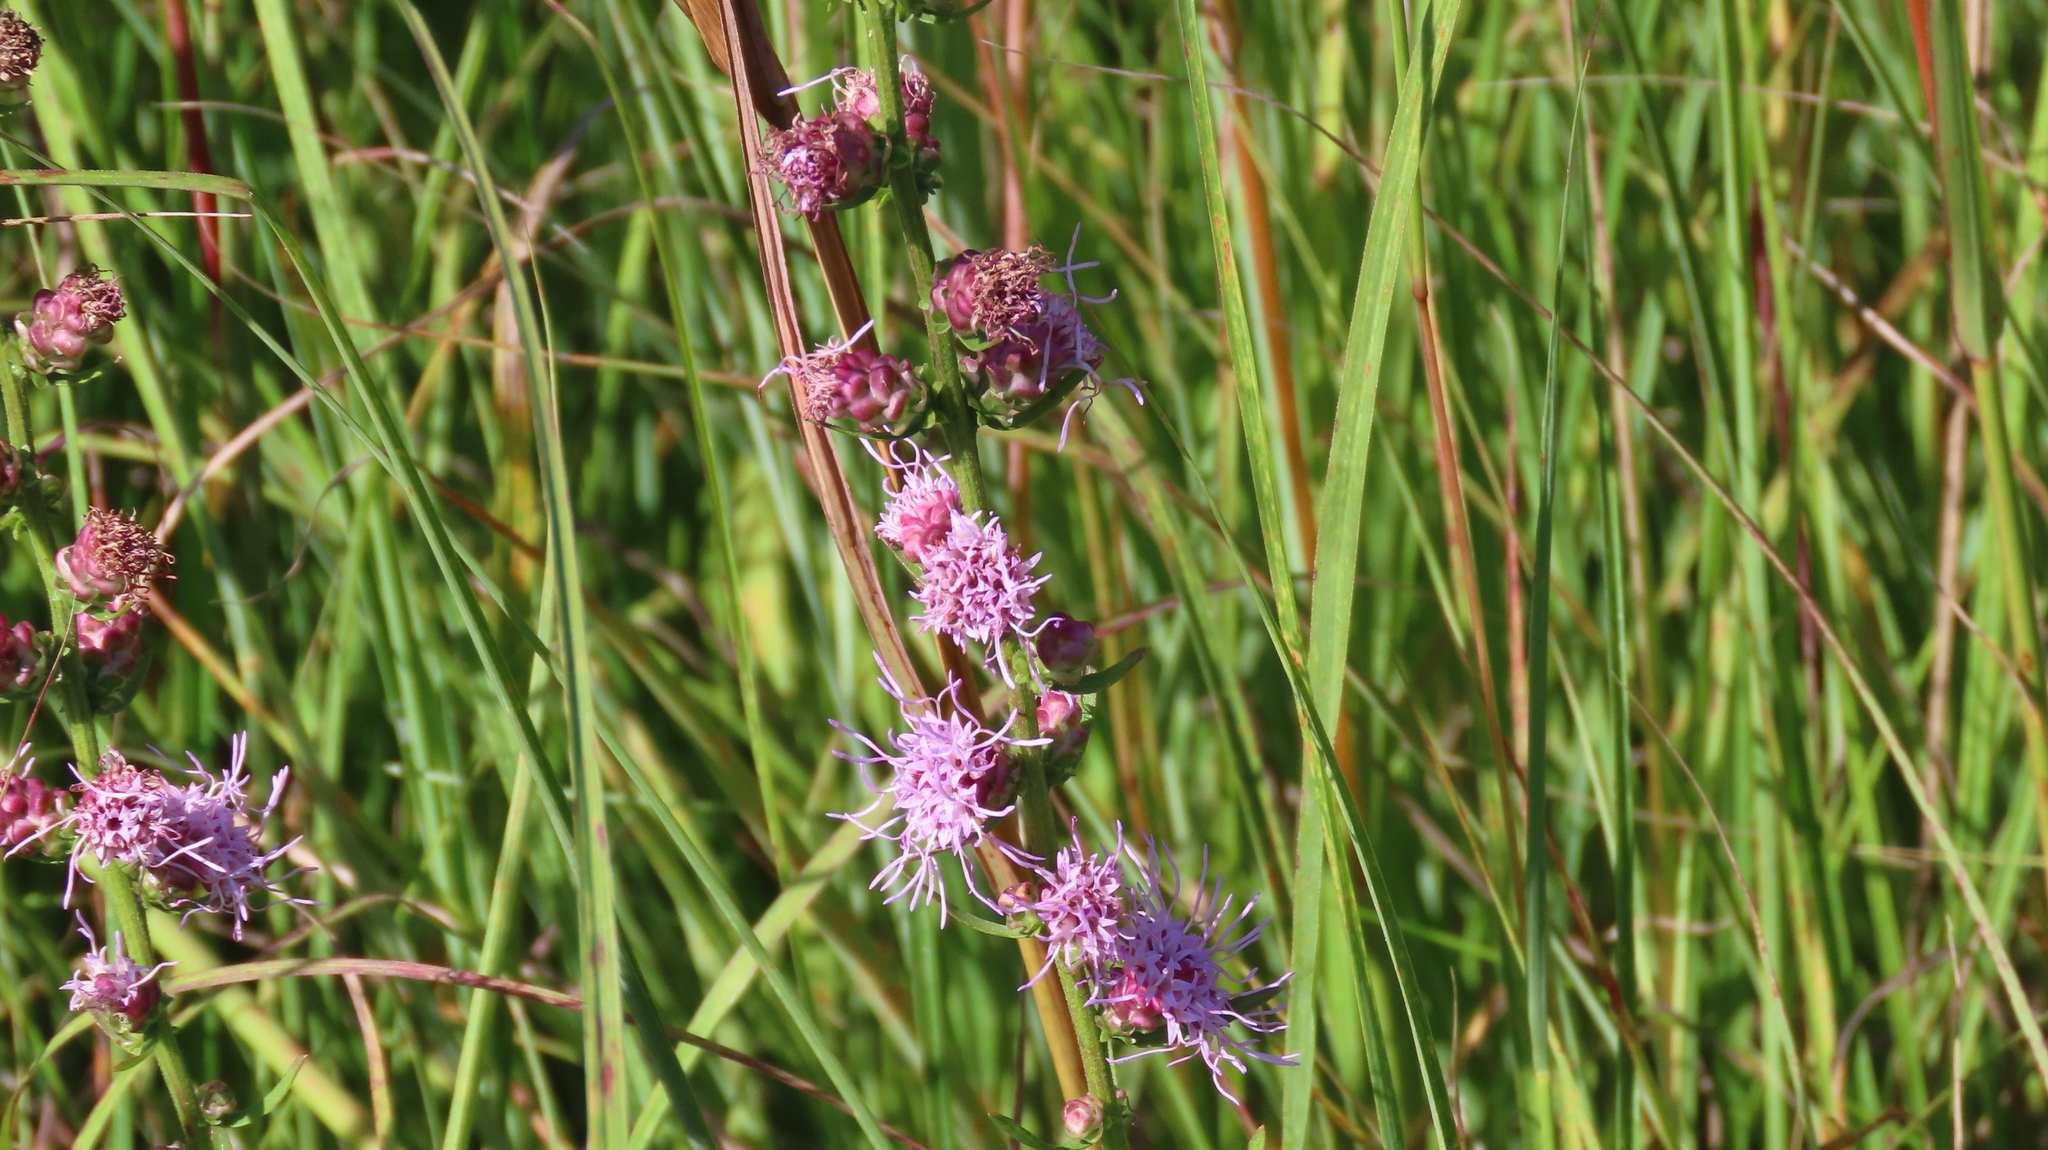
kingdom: Plantae
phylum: Tracheophyta
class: Magnoliopsida
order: Asterales
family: Asteraceae
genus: Liatris
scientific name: Liatris aspera
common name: Lacerate blazing-star
